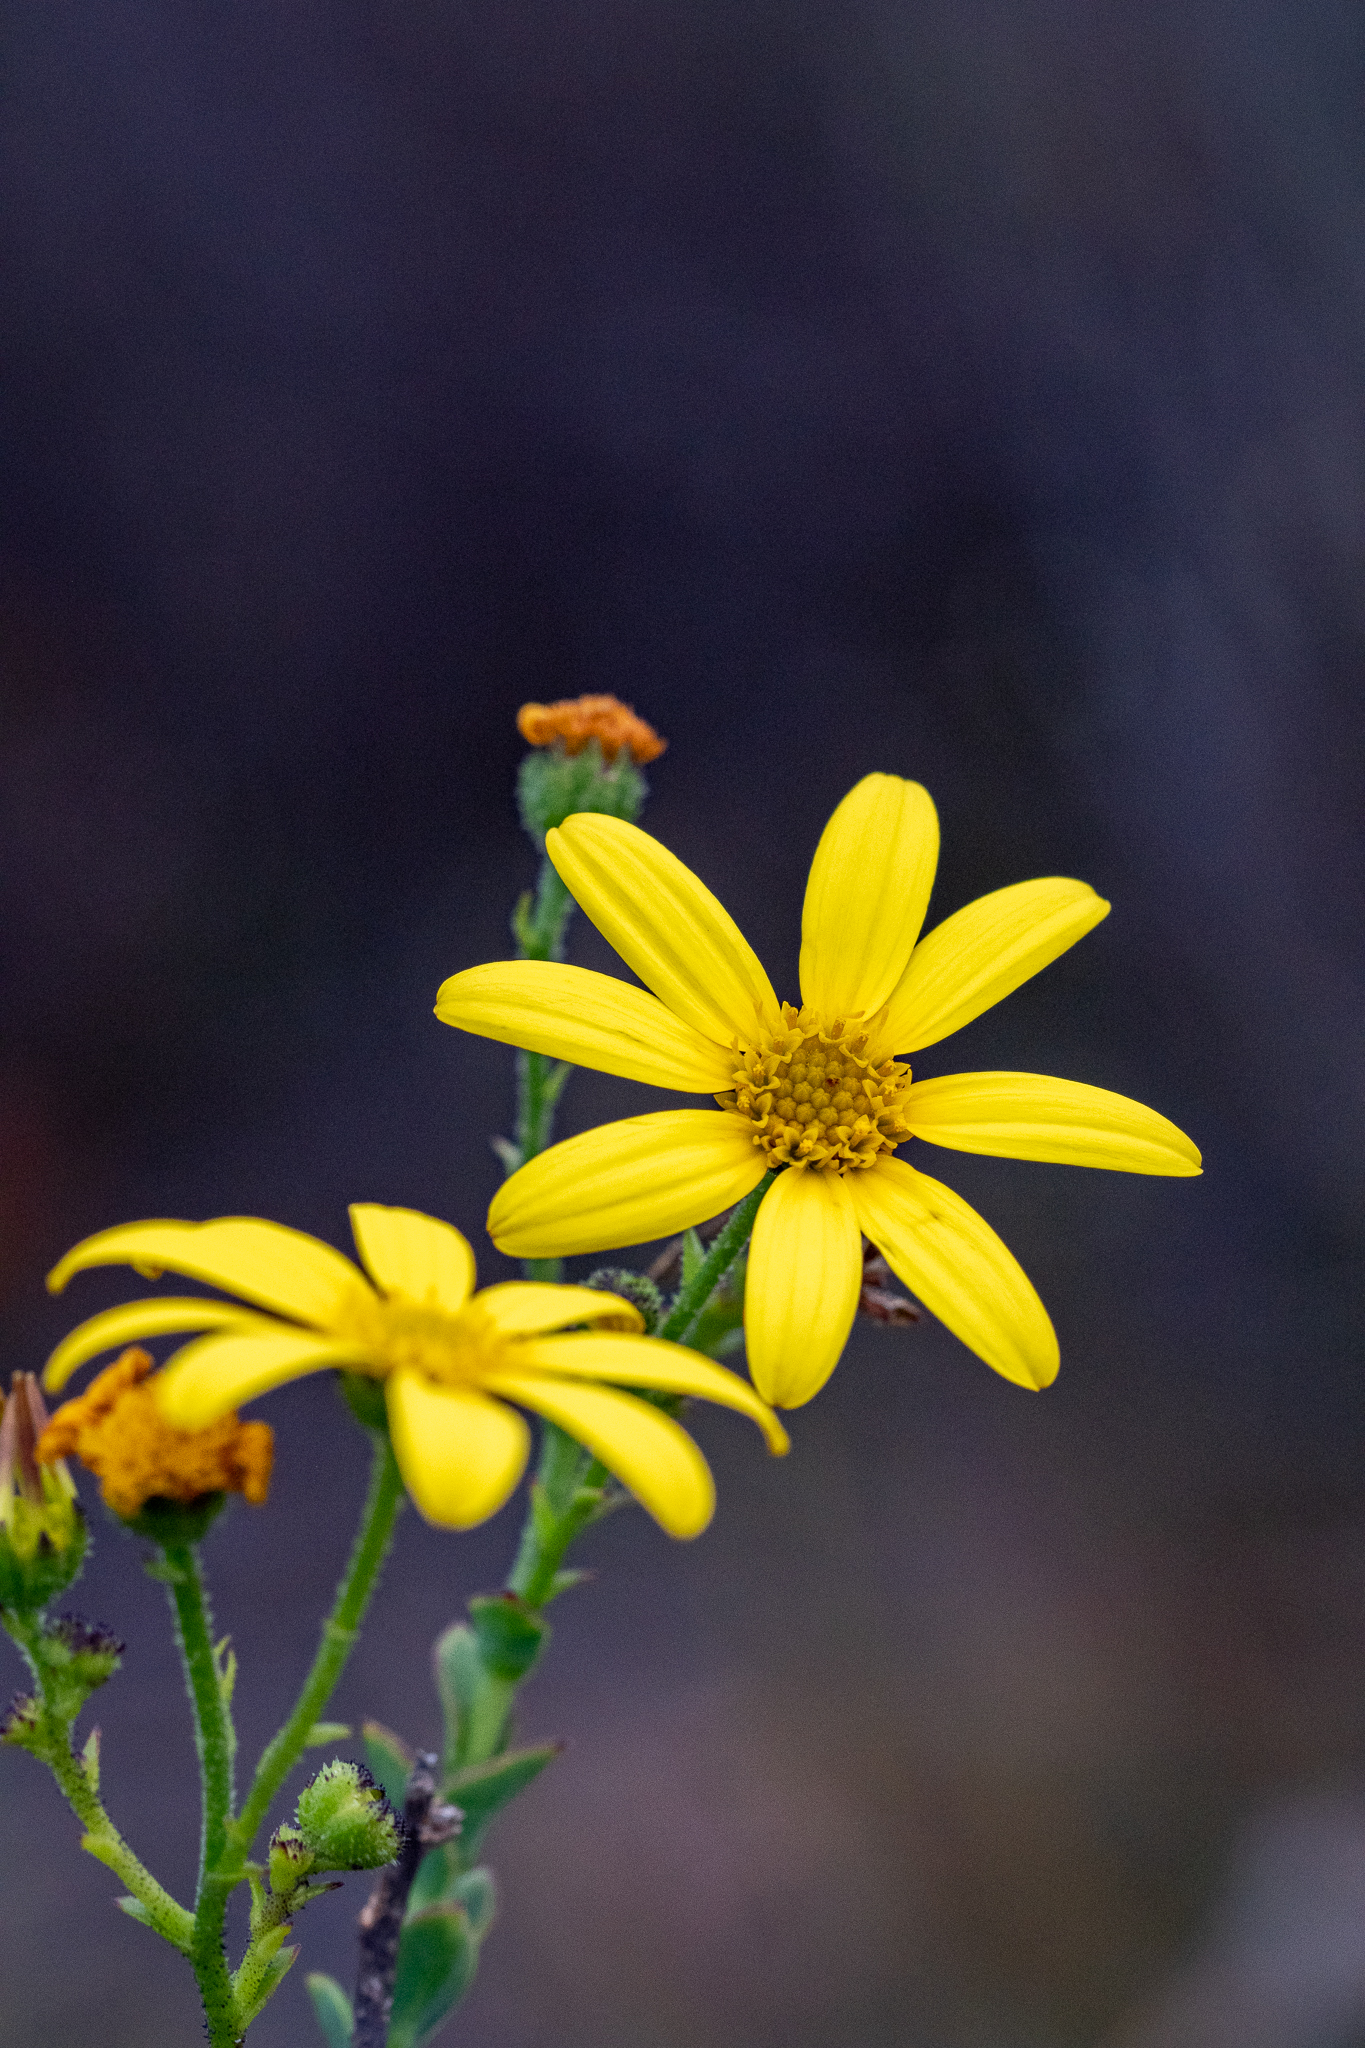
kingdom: Plantae
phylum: Tracheophyta
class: Magnoliopsida
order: Asterales
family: Asteraceae
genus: Osteospermum
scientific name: Osteospermum rotundifolium
